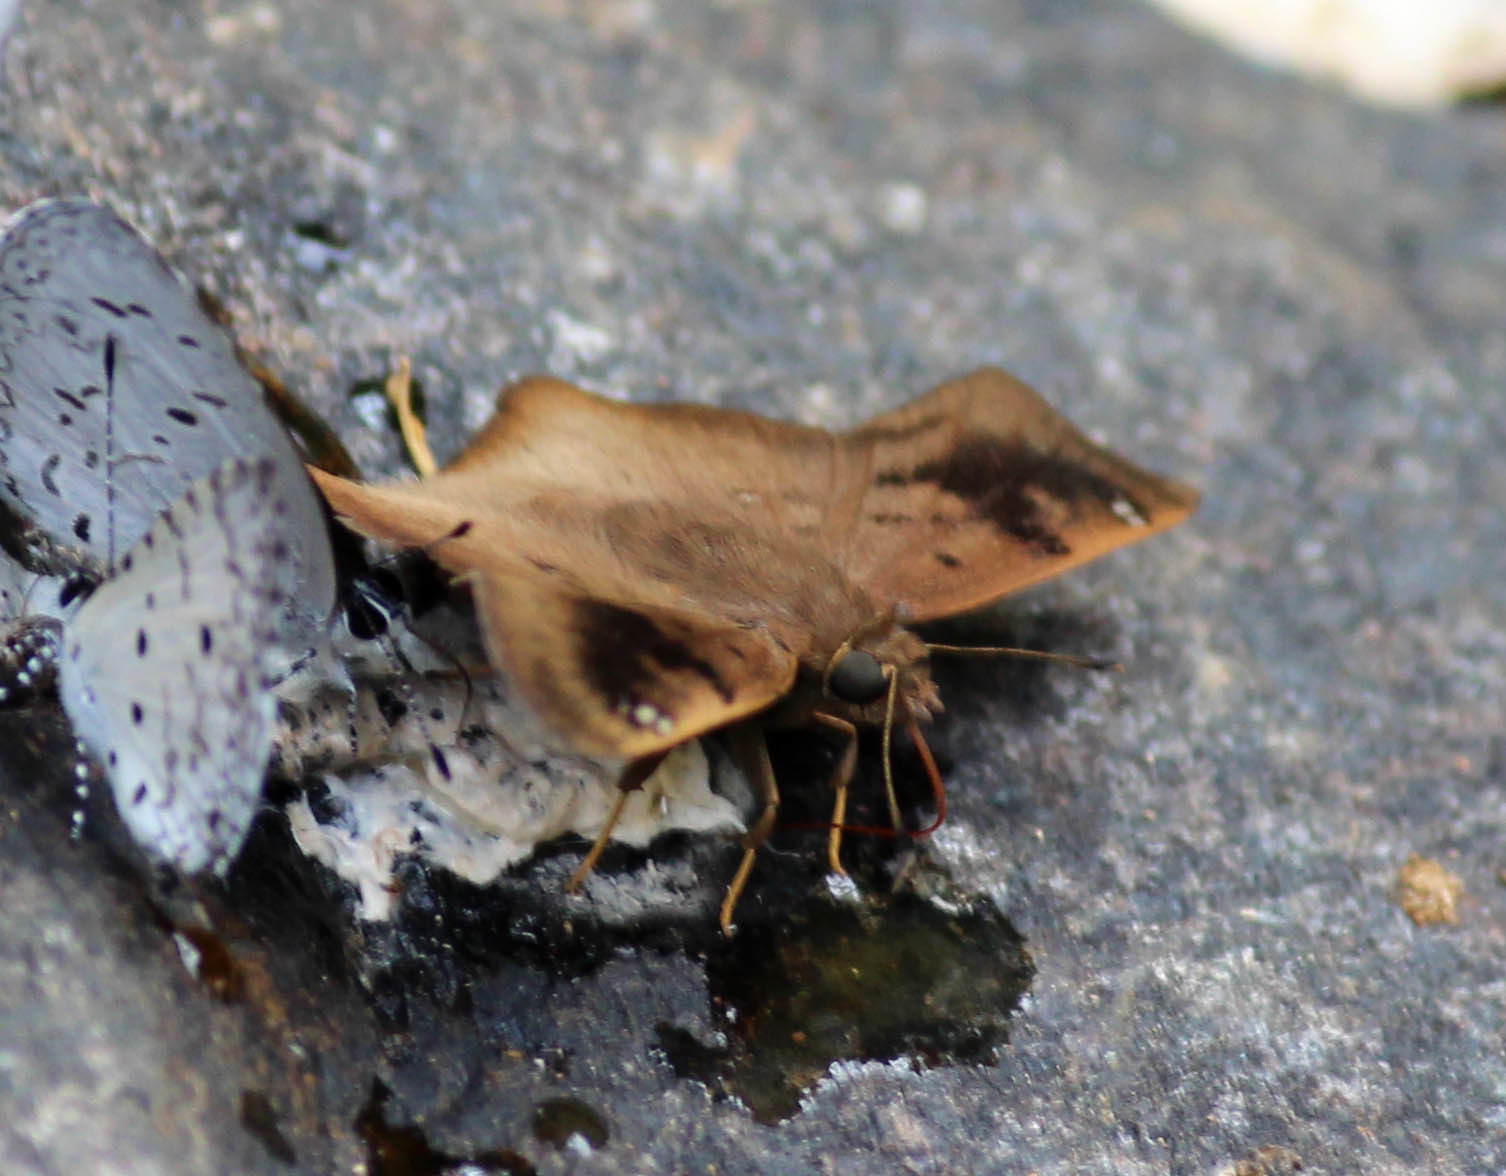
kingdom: Animalia
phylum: Arthropoda
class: Insecta
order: Lepidoptera
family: Hesperiidae
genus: Tapena
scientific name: Tapena thwaitesi
